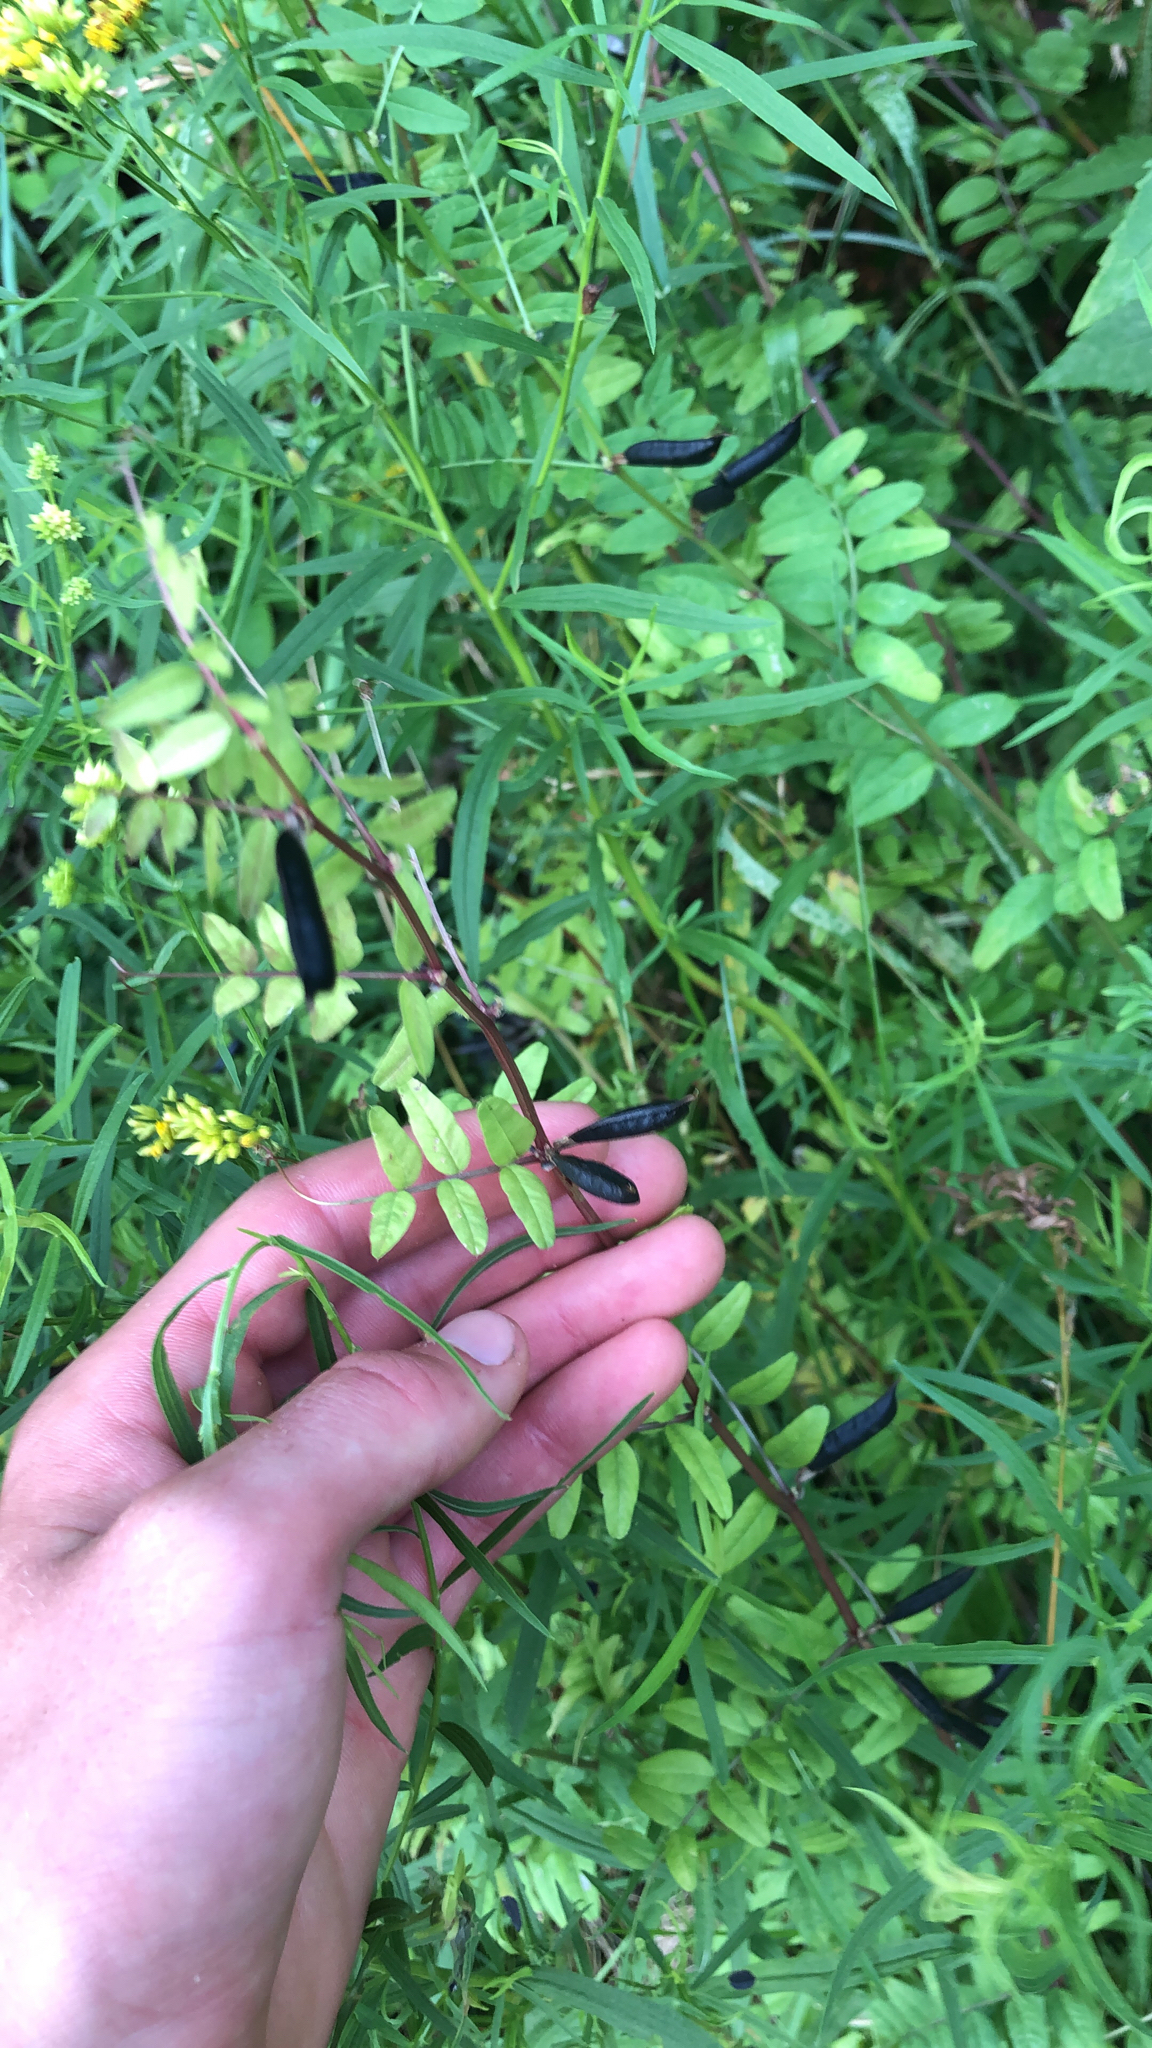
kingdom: Plantae
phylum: Tracheophyta
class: Magnoliopsida
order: Fabales
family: Fabaceae
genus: Vicia
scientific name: Vicia sepium
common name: Bush vetch
